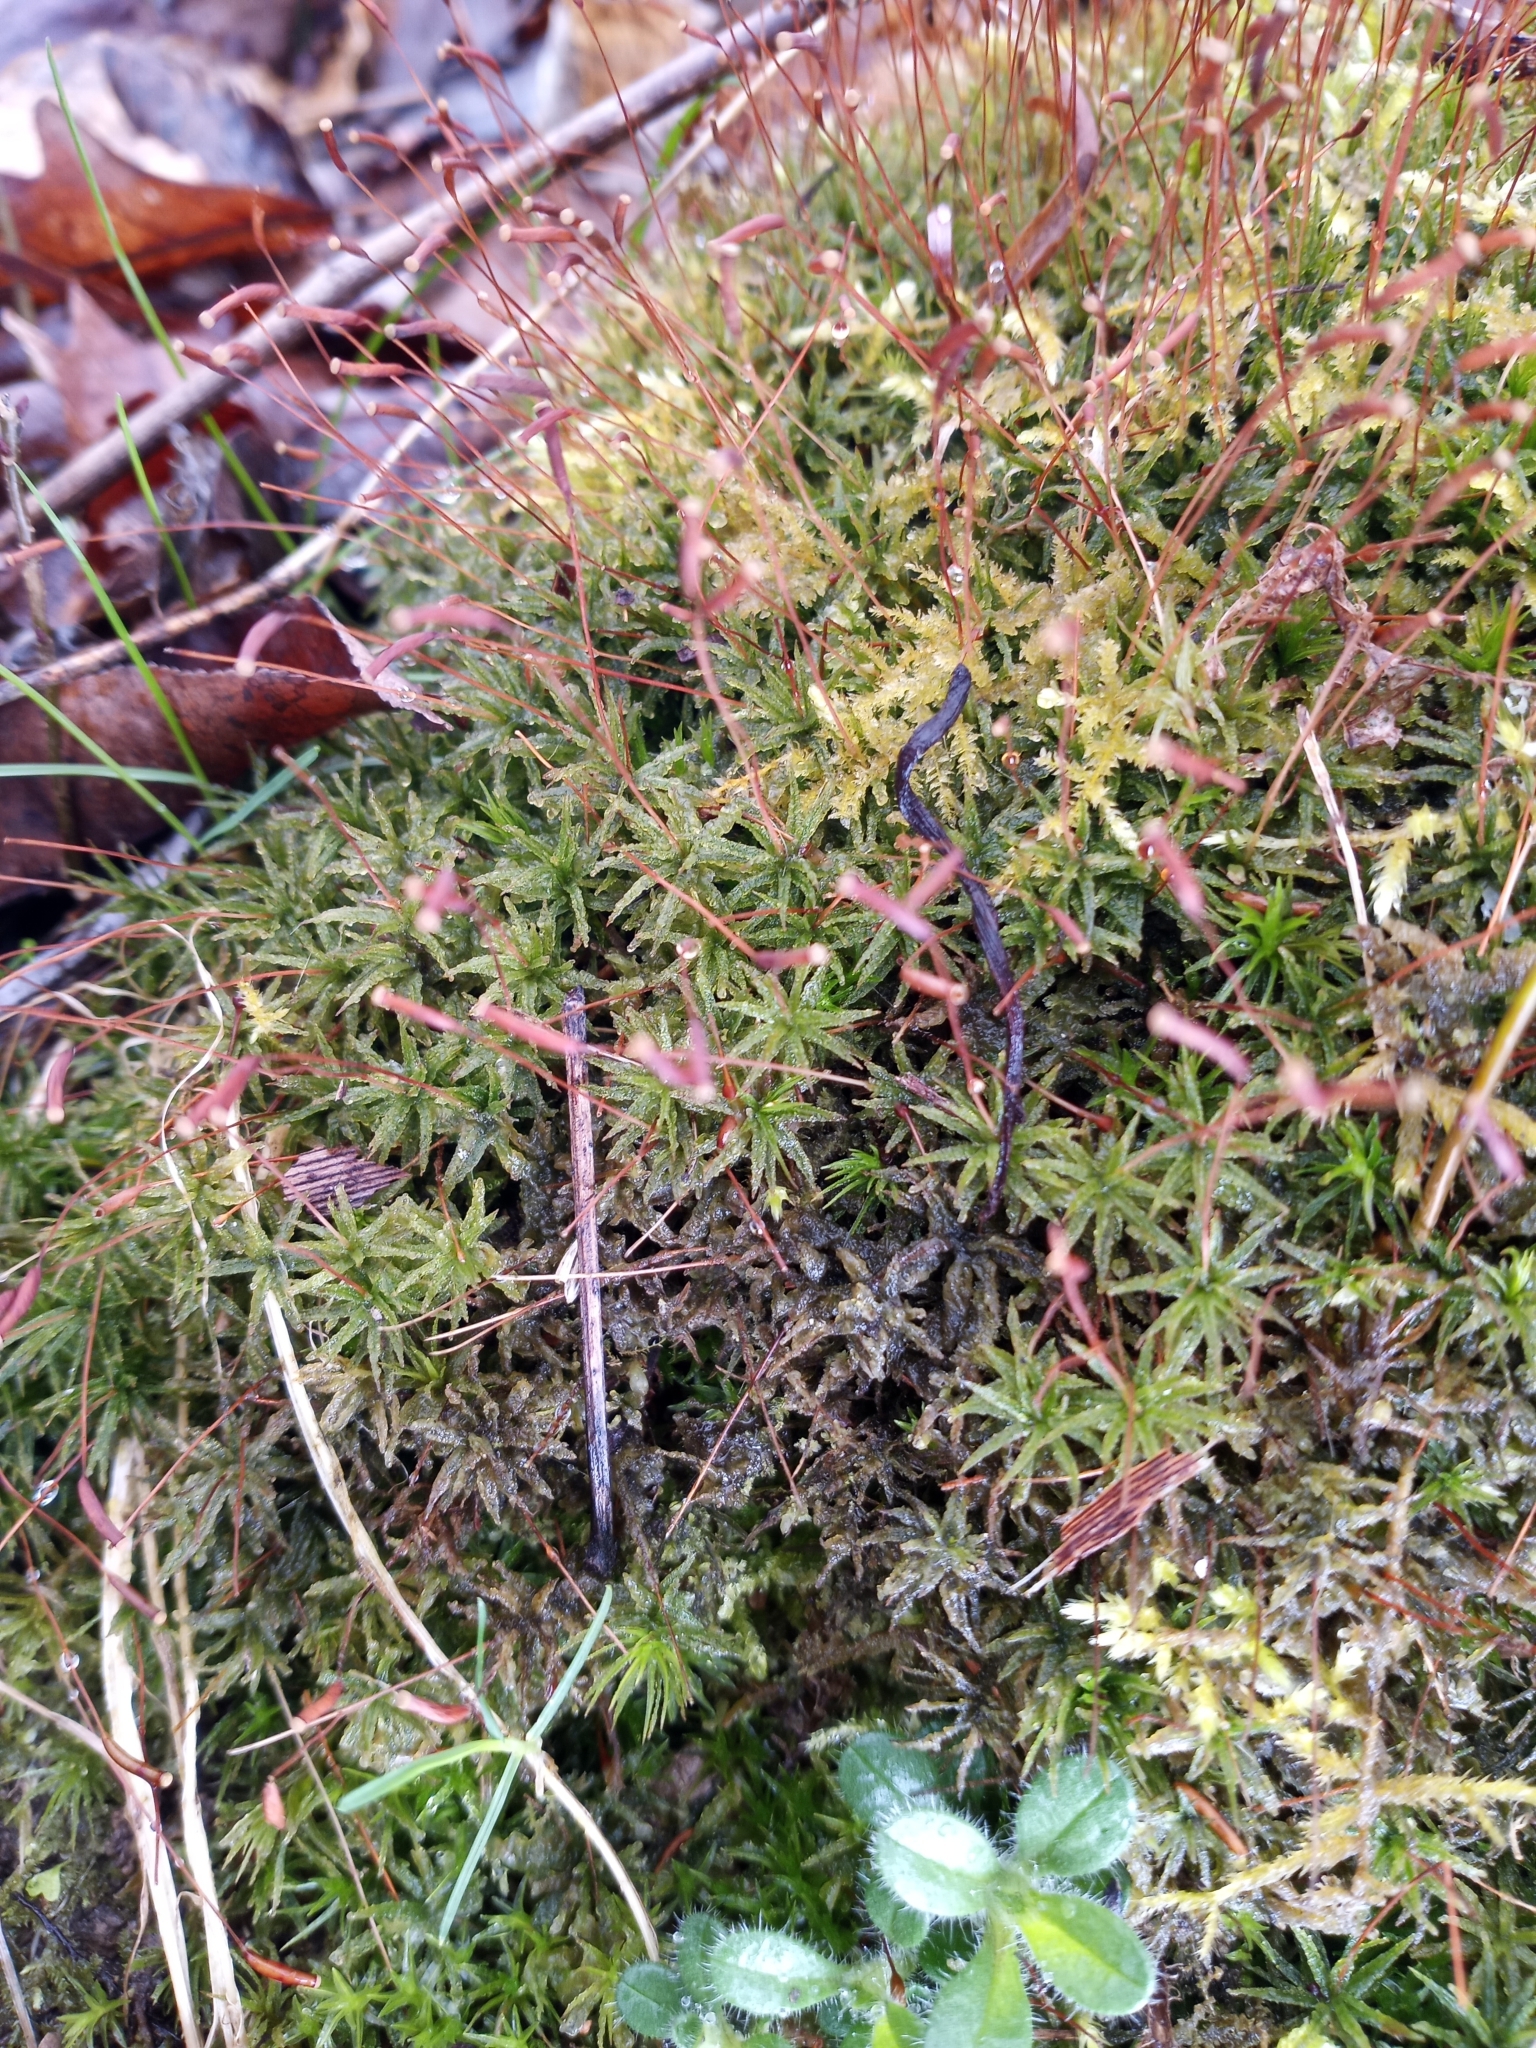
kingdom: Plantae
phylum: Bryophyta
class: Polytrichopsida
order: Polytrichales
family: Polytrichaceae
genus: Atrichum
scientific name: Atrichum angustatum
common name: Lesser smoothcap
